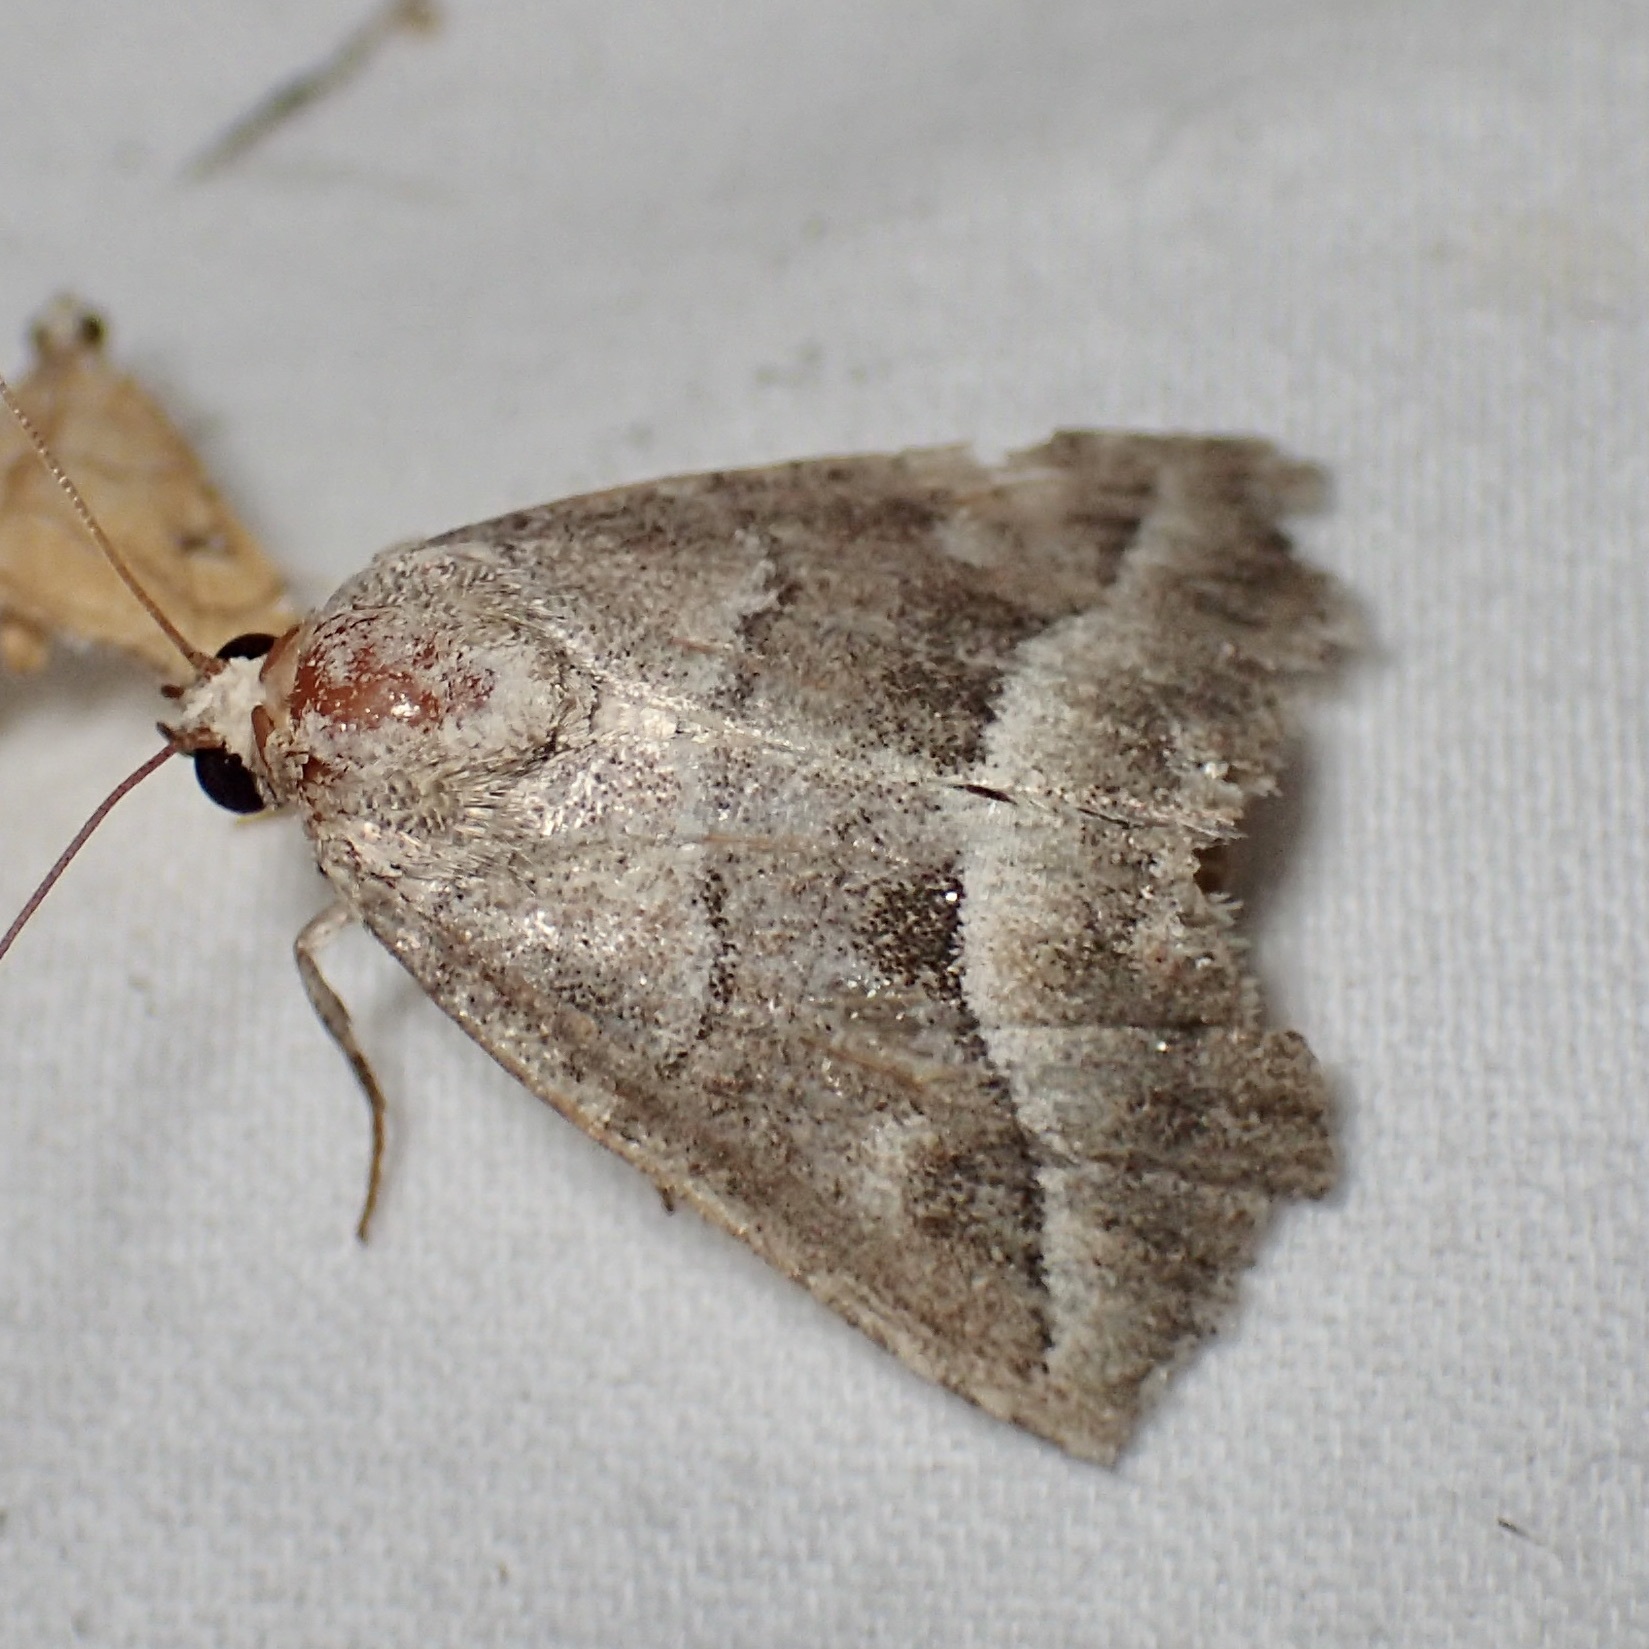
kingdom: Animalia
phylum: Arthropoda
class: Insecta
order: Lepidoptera
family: Noctuidae
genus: Ogdoconta
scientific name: Ogdoconta moreno
